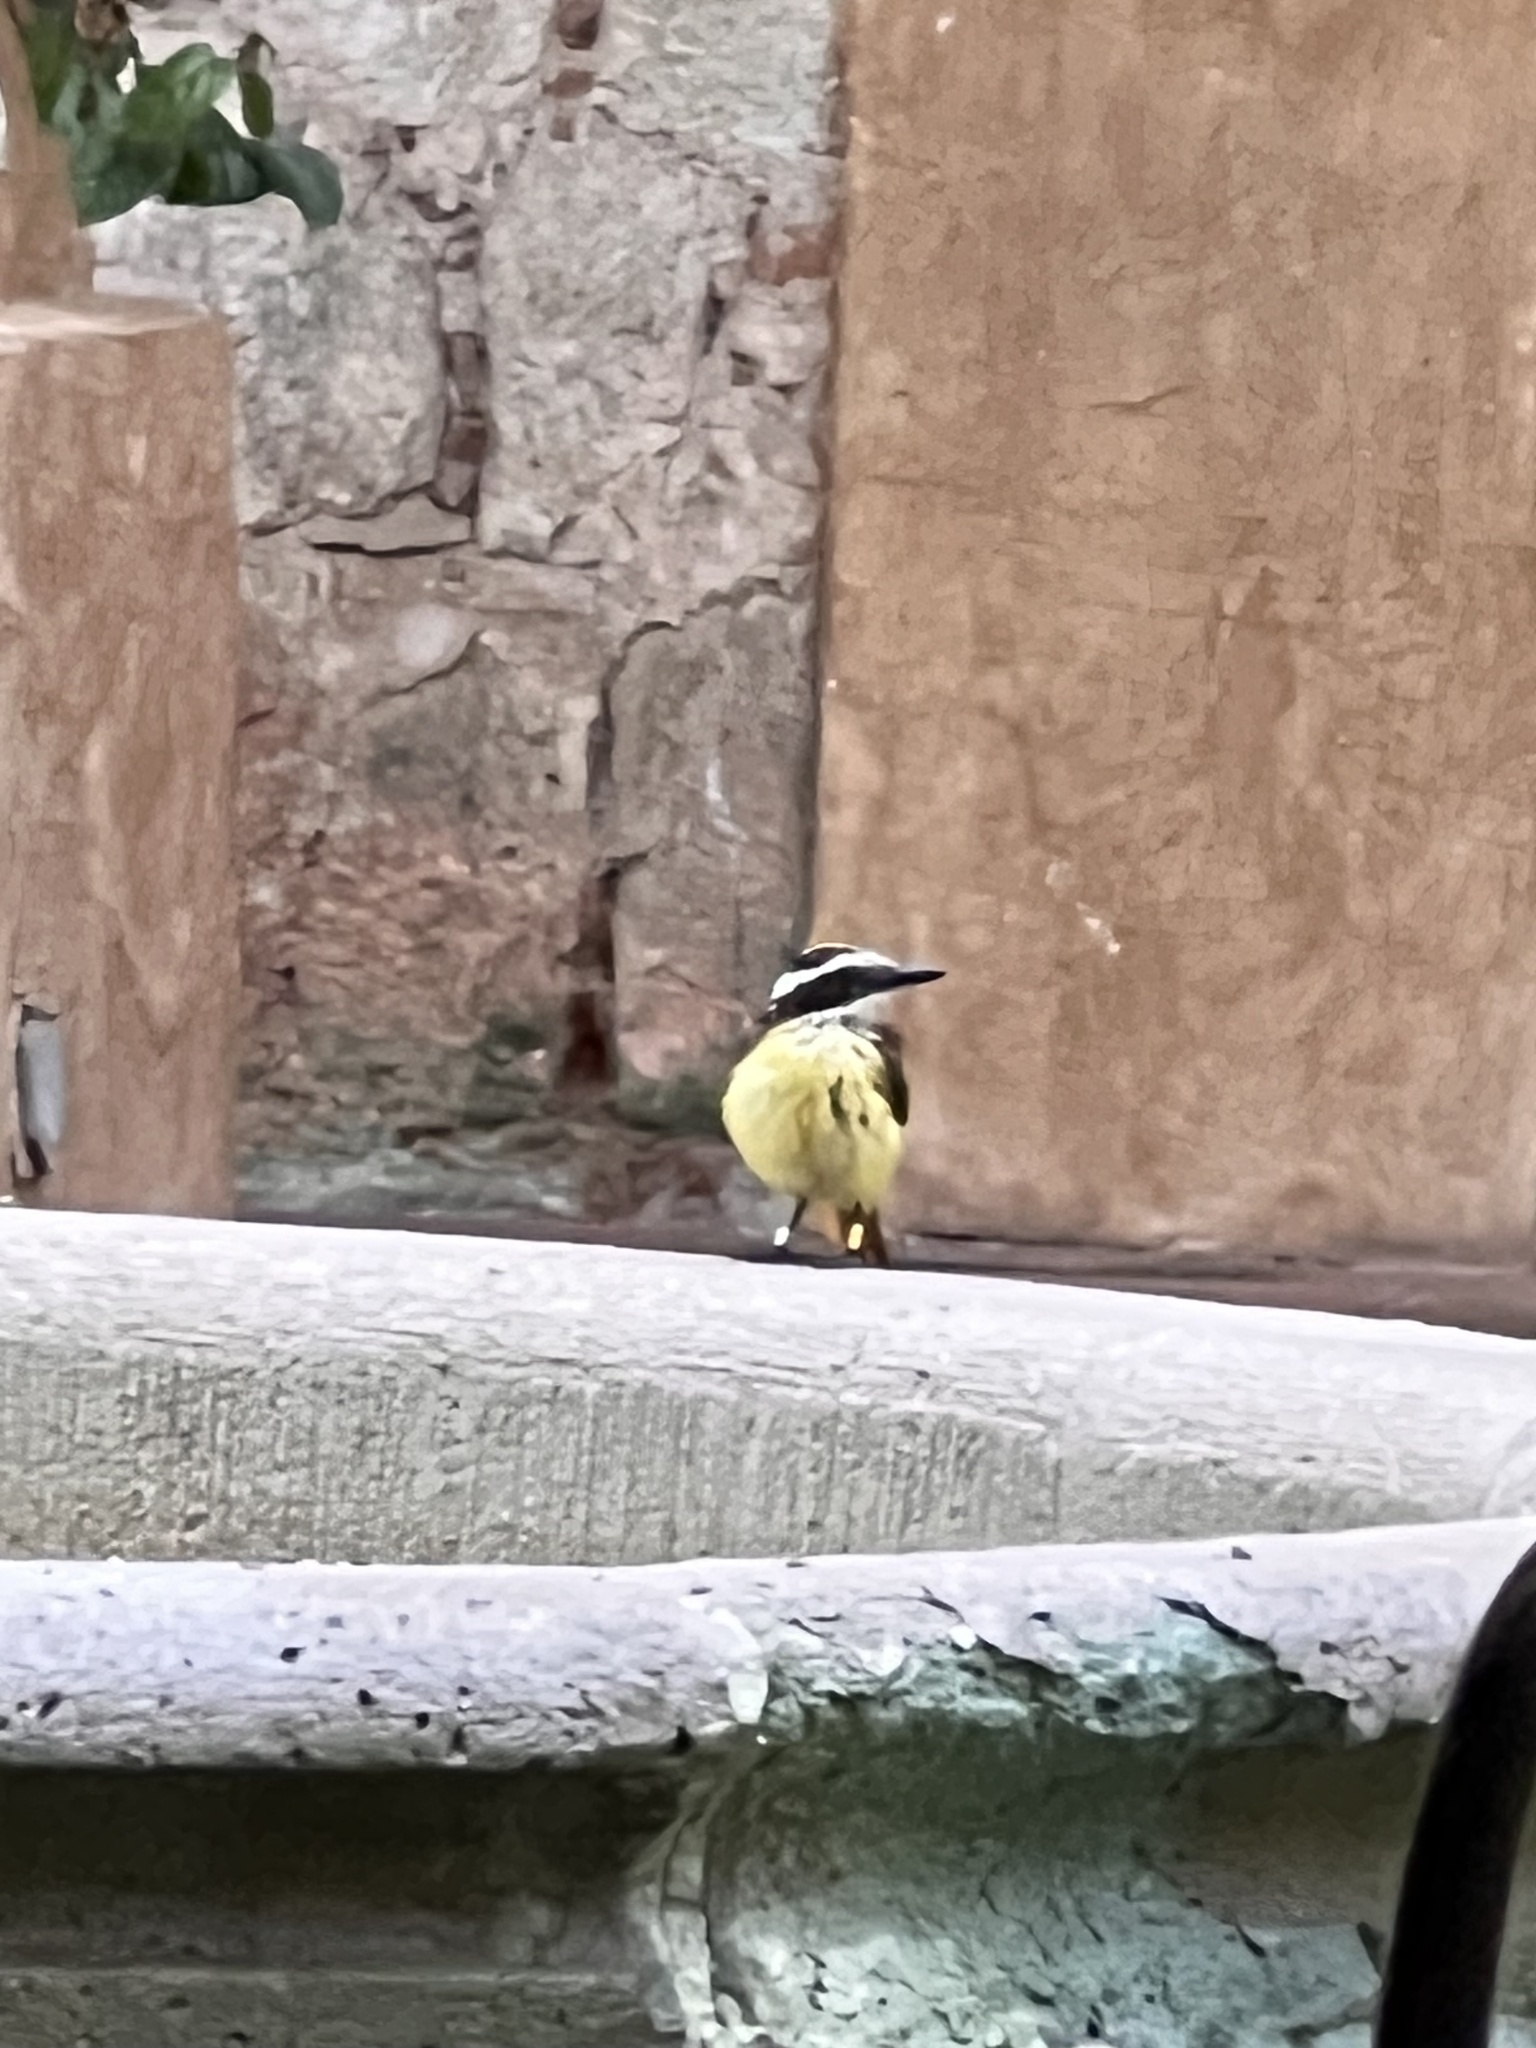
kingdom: Animalia
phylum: Chordata
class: Aves
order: Passeriformes
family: Tyrannidae
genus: Pitangus
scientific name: Pitangus sulphuratus
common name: Great kiskadee
